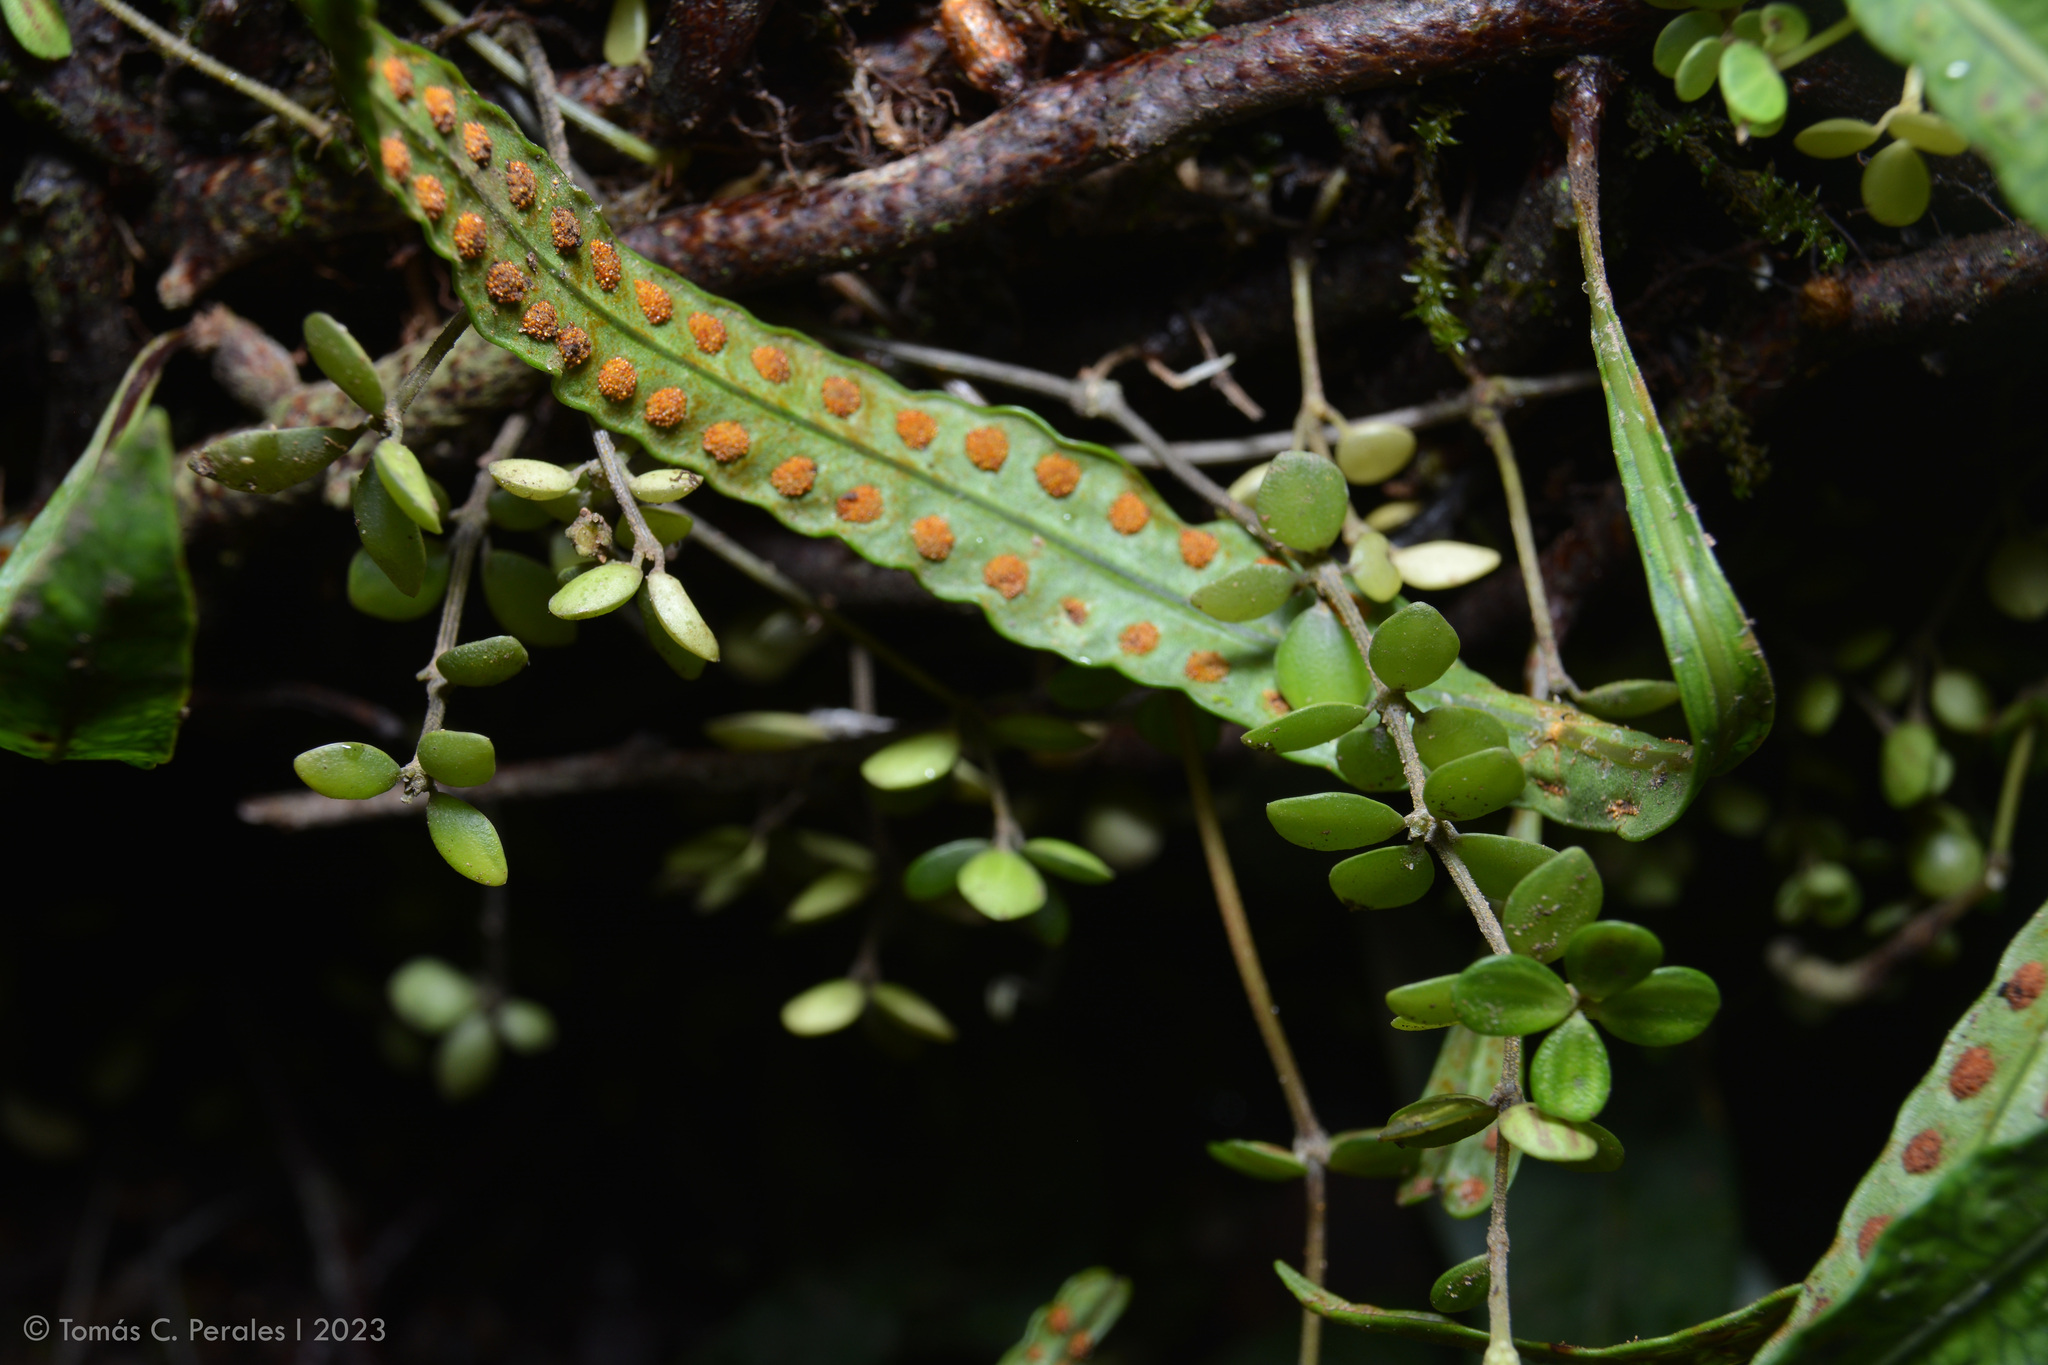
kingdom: Plantae
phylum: Tracheophyta
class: Magnoliopsida
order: Piperales
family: Piperaceae
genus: Peperomia
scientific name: Peperomia tetraphylla
